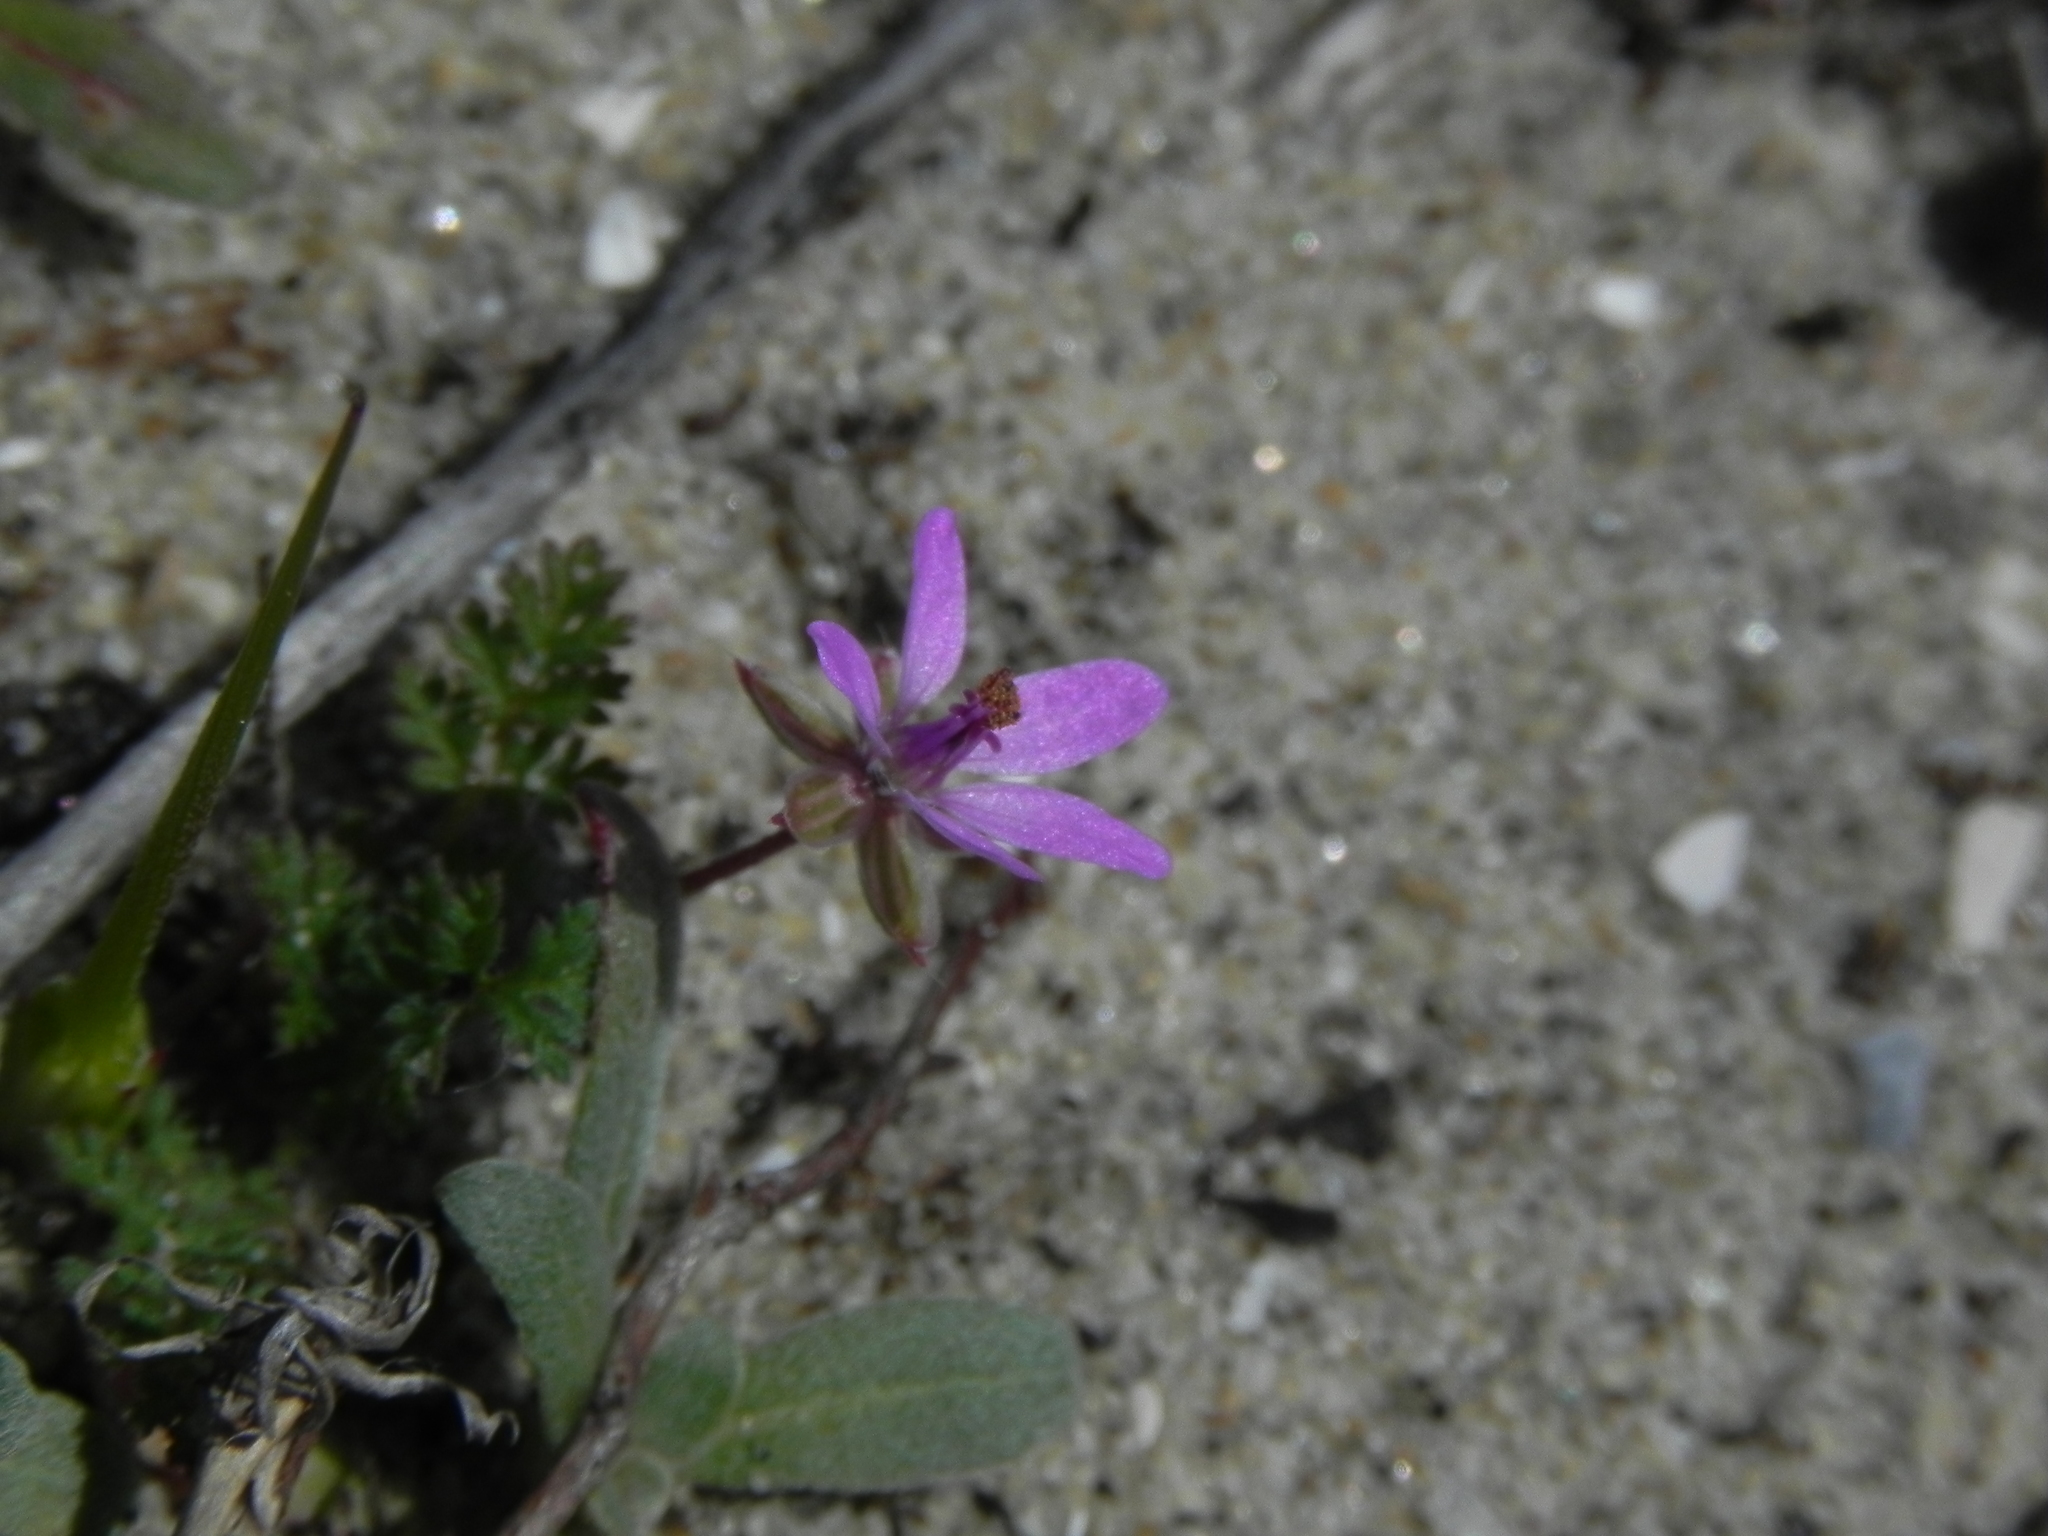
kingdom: Plantae
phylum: Tracheophyta
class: Magnoliopsida
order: Geraniales
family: Geraniaceae
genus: Erodium
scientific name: Erodium cicutarium
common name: Common stork's-bill
